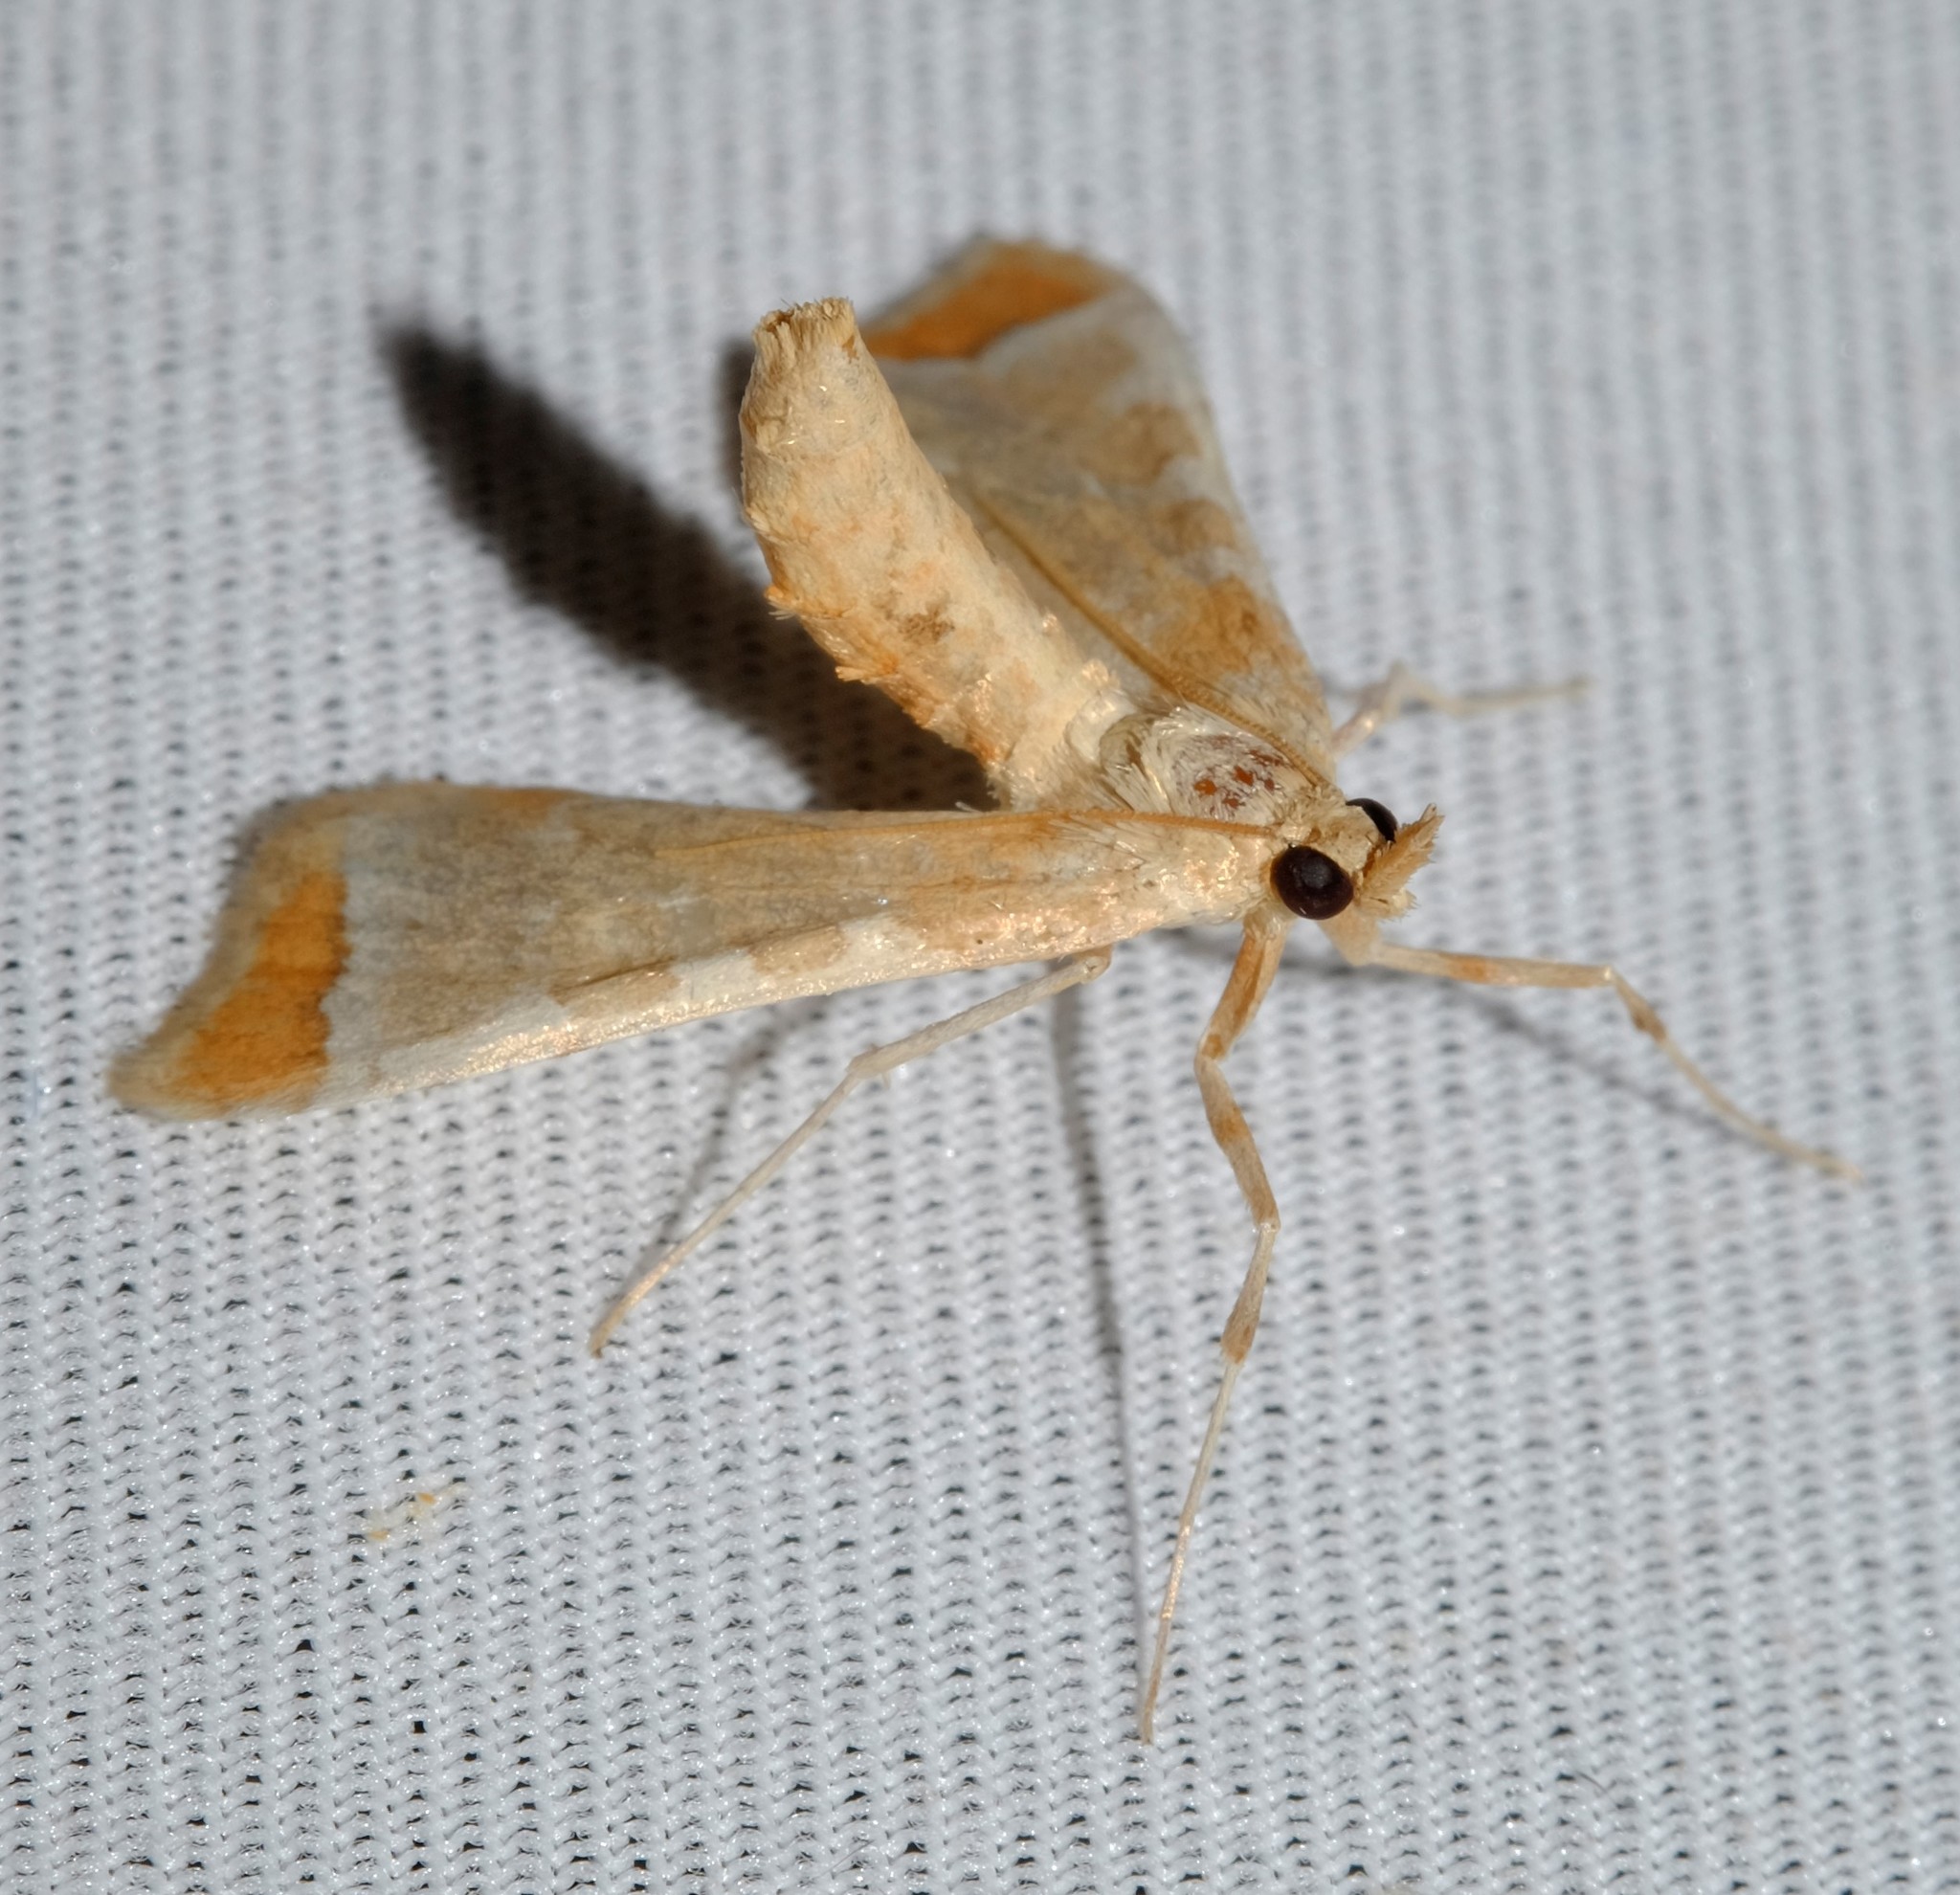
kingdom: Animalia
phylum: Arthropoda
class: Insecta
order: Lepidoptera
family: Crambidae
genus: Sceliodes
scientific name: Sceliodes cordalis
